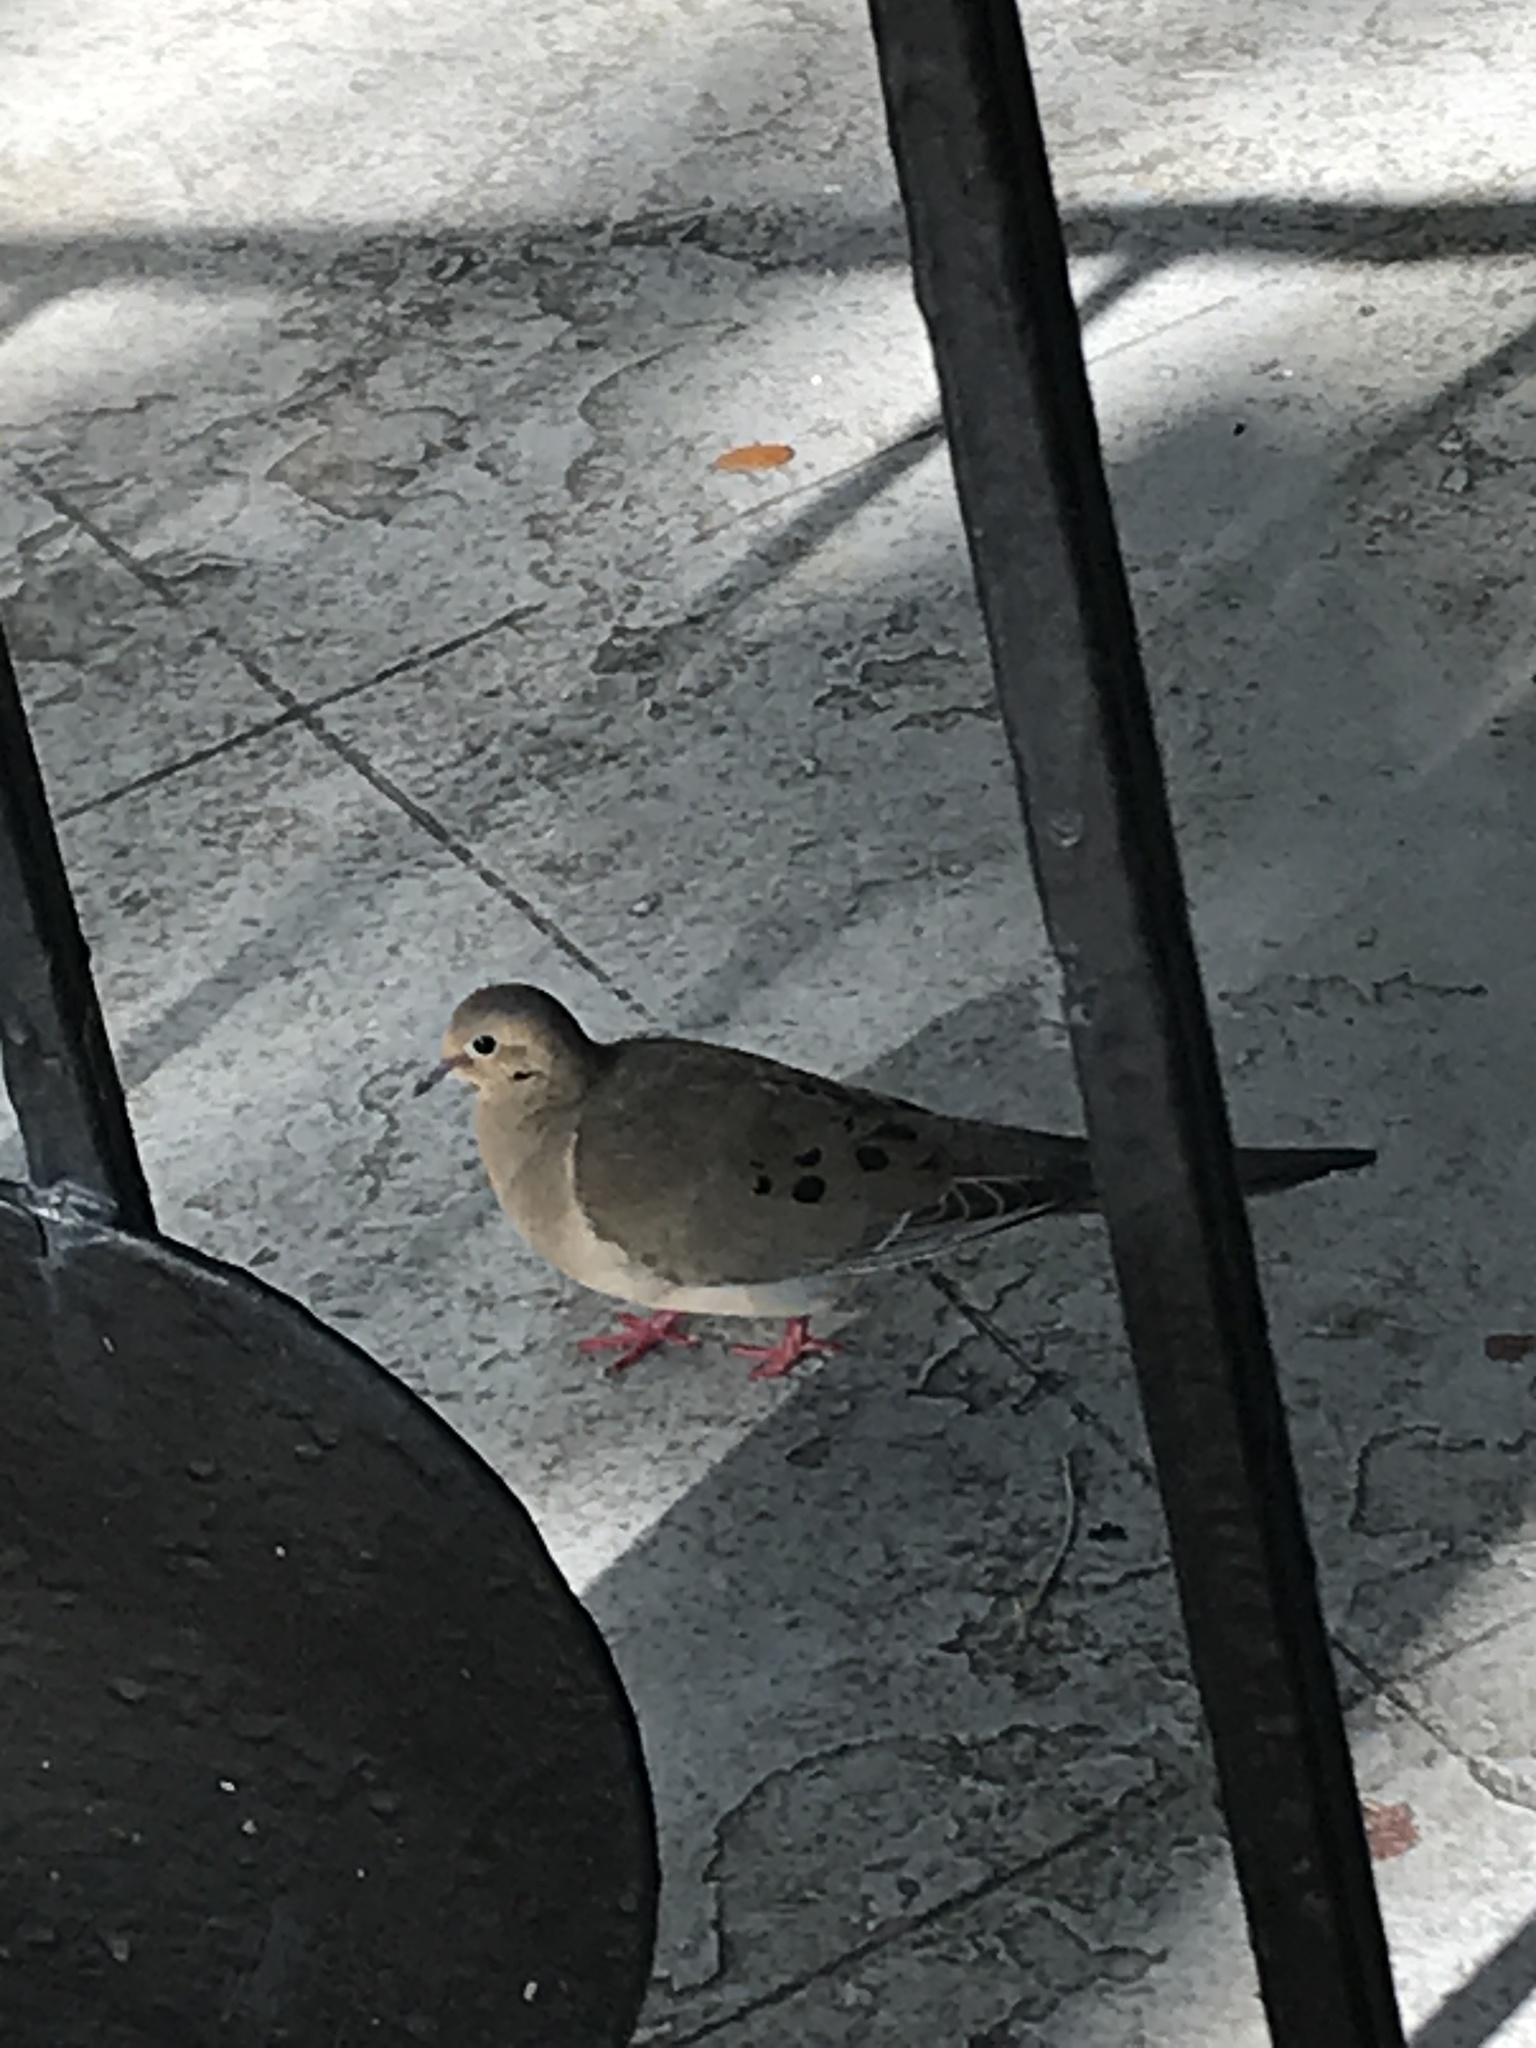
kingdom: Animalia
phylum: Chordata
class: Aves
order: Columbiformes
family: Columbidae
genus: Zenaida
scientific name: Zenaida macroura
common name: Mourning dove
